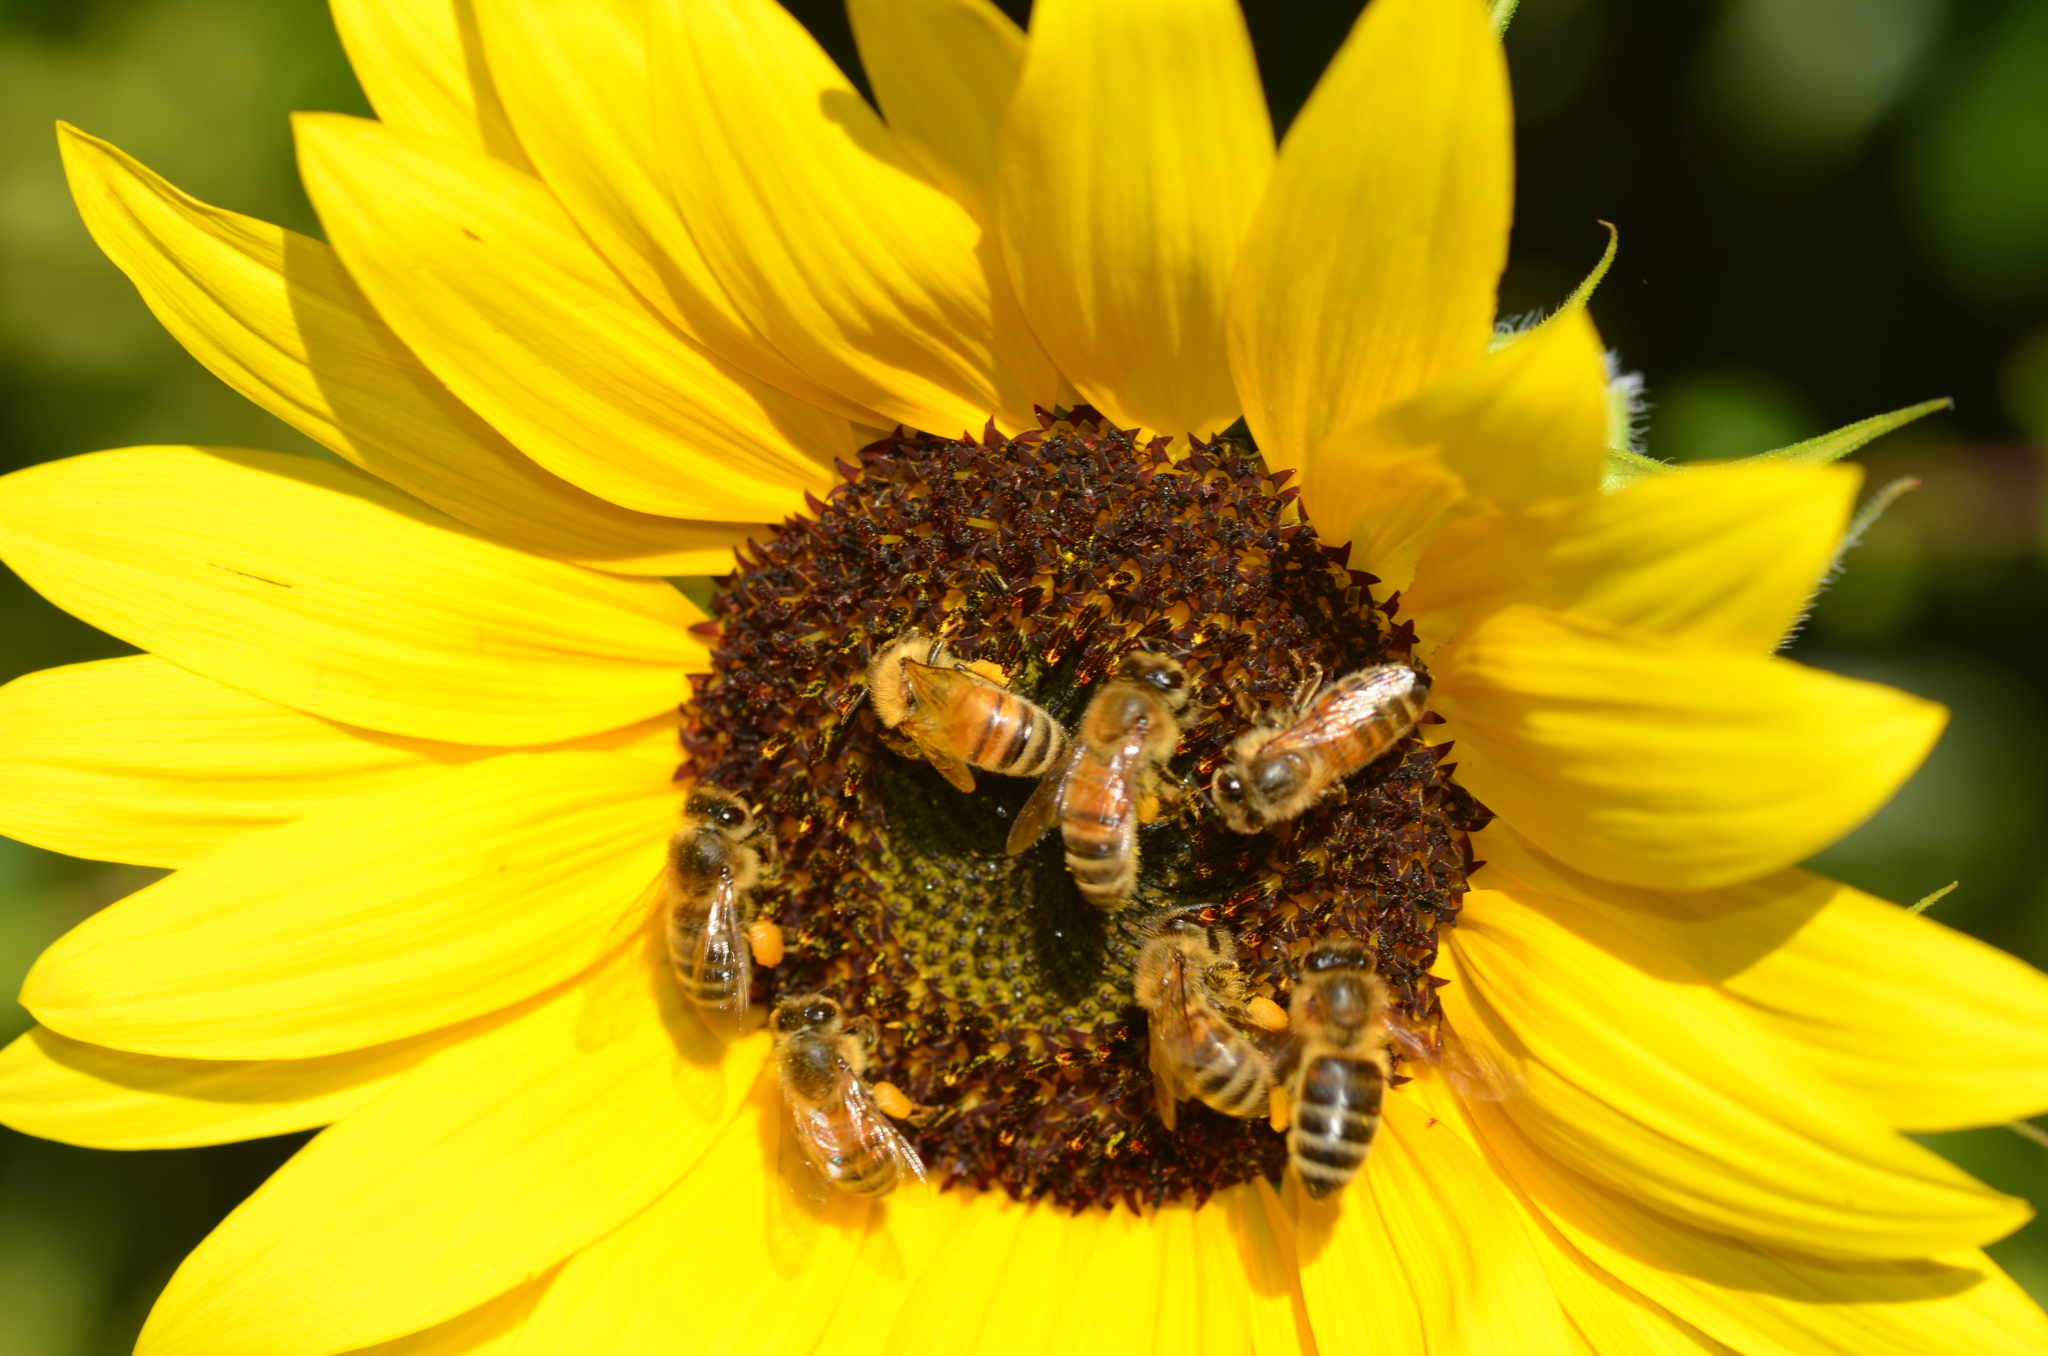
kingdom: Animalia
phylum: Arthropoda
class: Insecta
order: Hymenoptera
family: Apidae
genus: Apis
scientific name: Apis mellifera
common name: Honey bee
